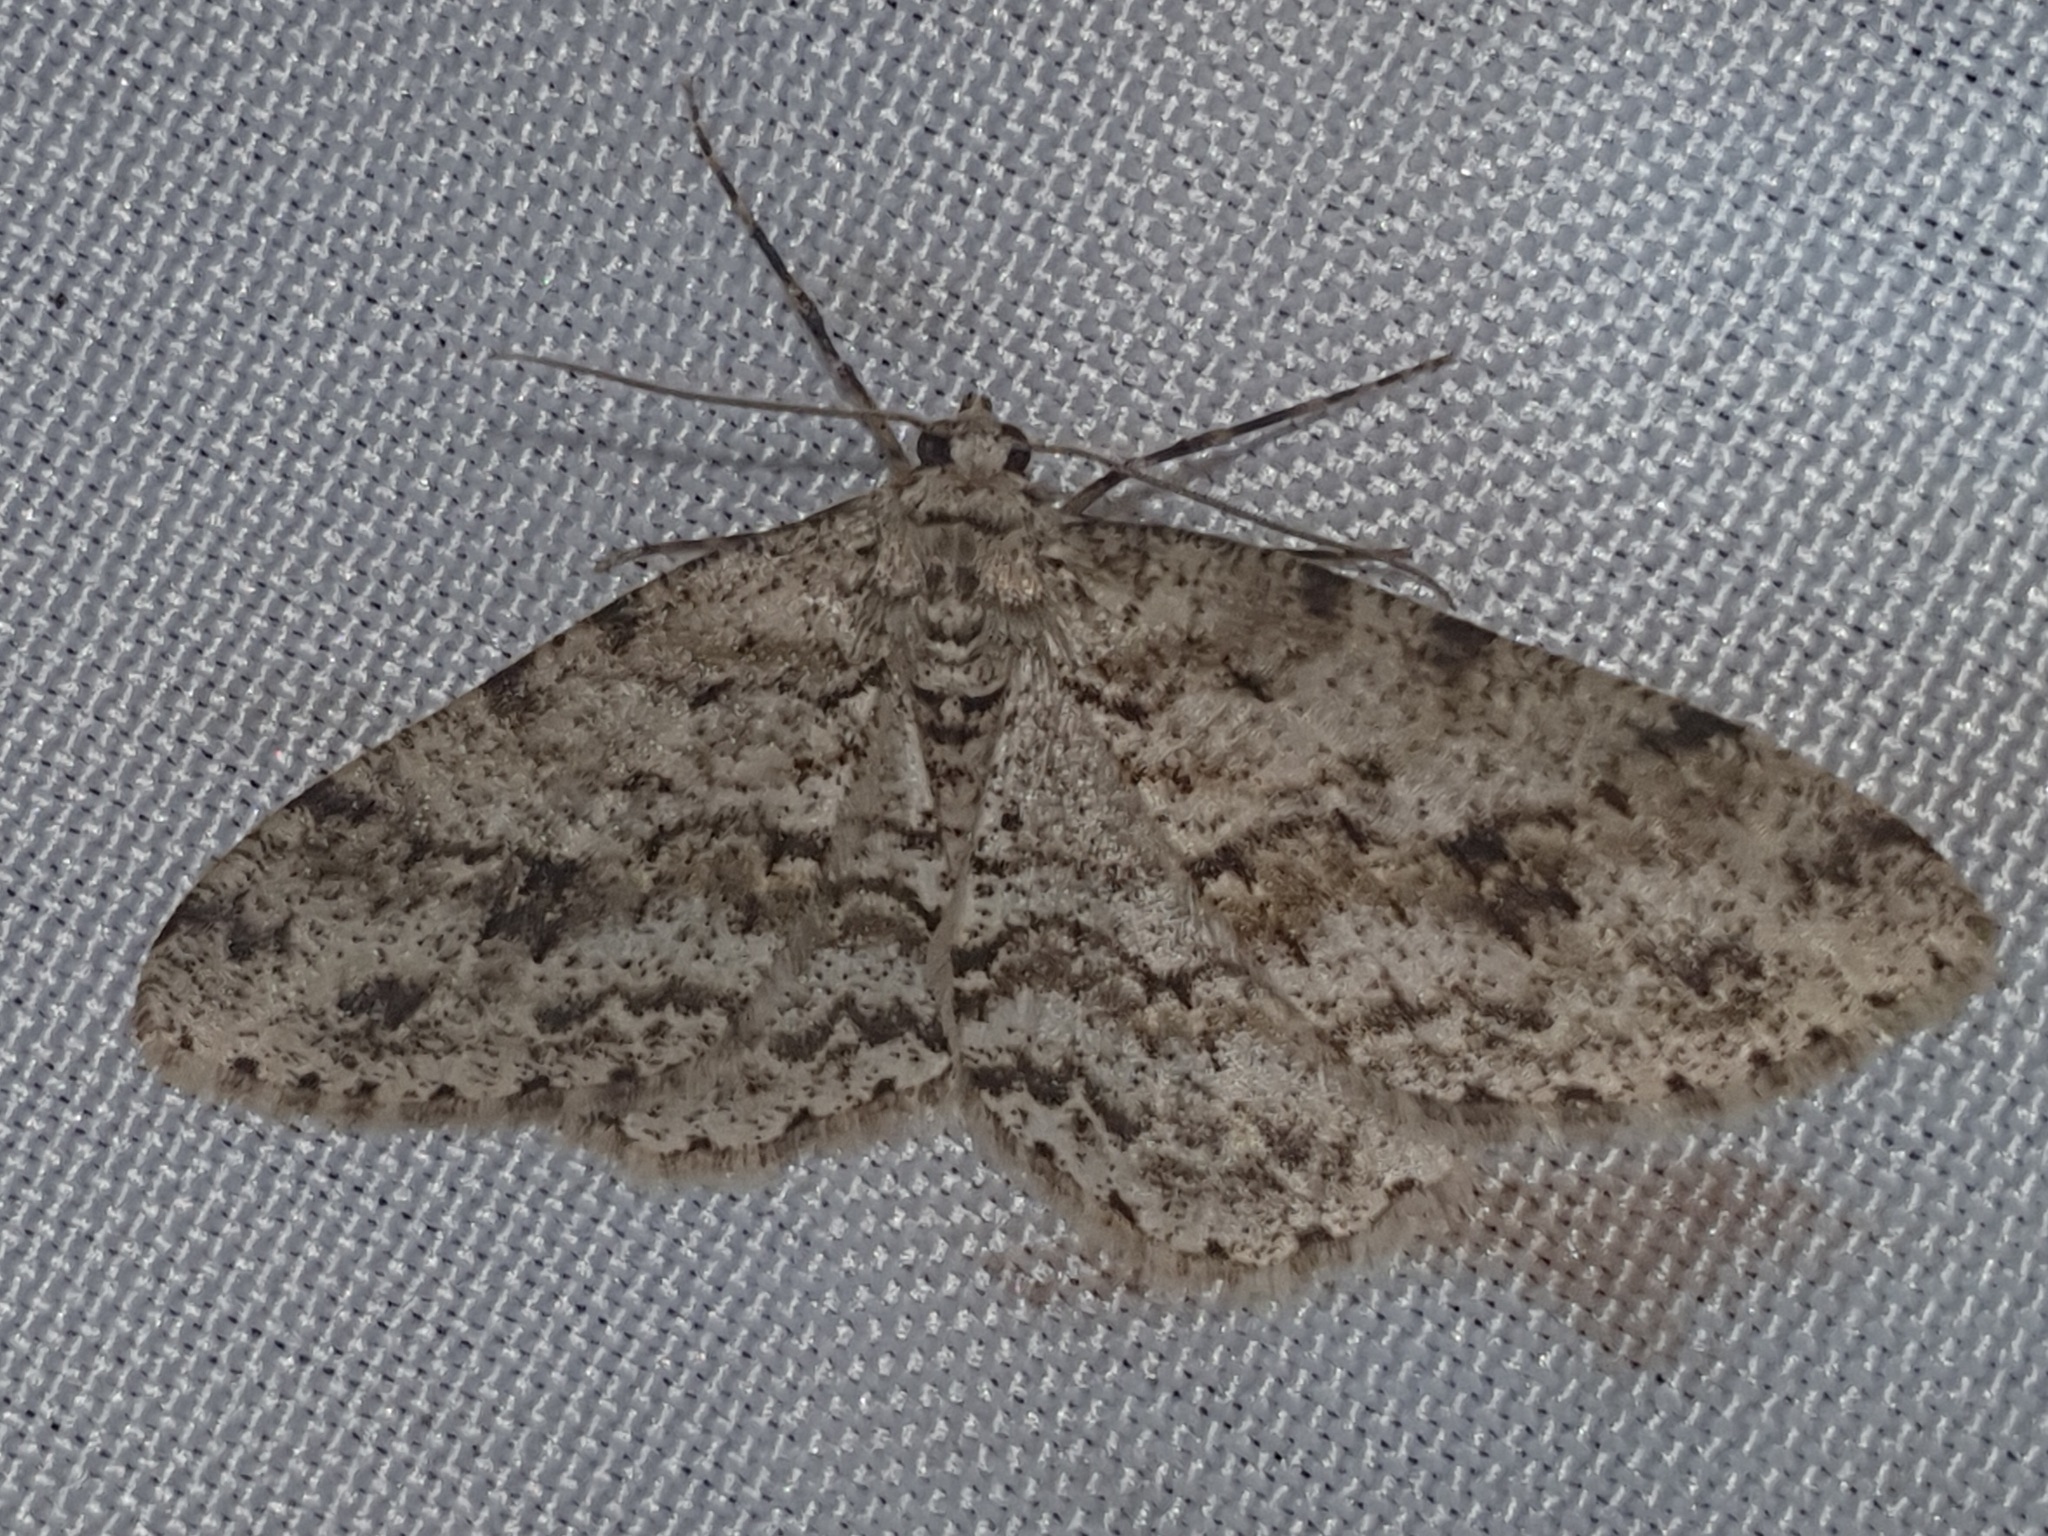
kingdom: Animalia
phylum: Arthropoda
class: Insecta
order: Lepidoptera
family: Geometridae
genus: Ectropis
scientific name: Ectropis crepuscularia
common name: Engrailed
